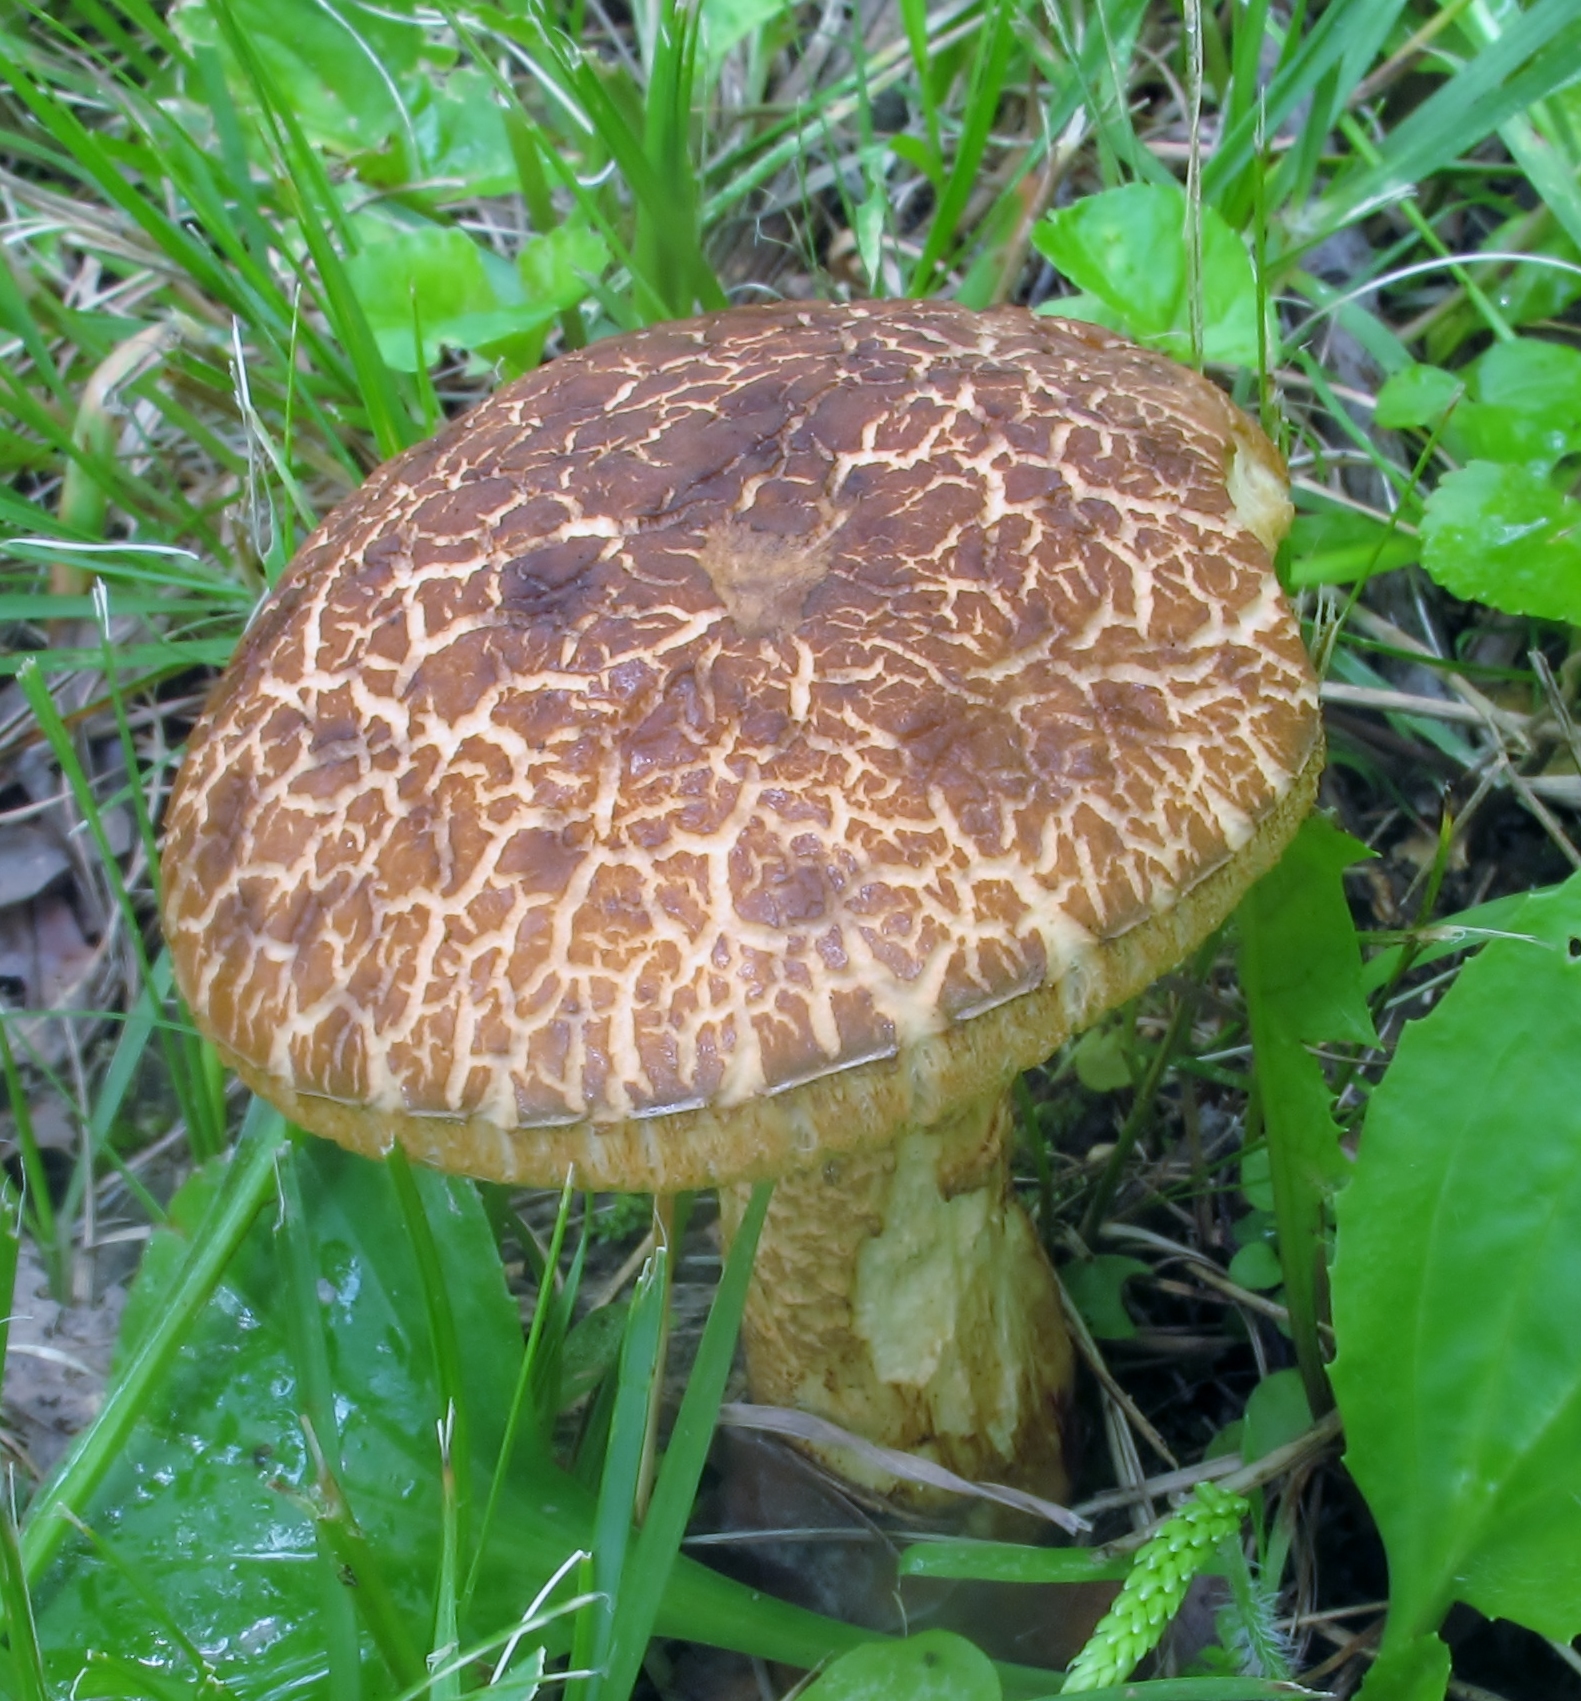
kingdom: Fungi
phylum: Basidiomycota
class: Agaricomycetes
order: Boletales
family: Boletaceae
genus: Leccinellum
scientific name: Leccinellum rugosiceps
